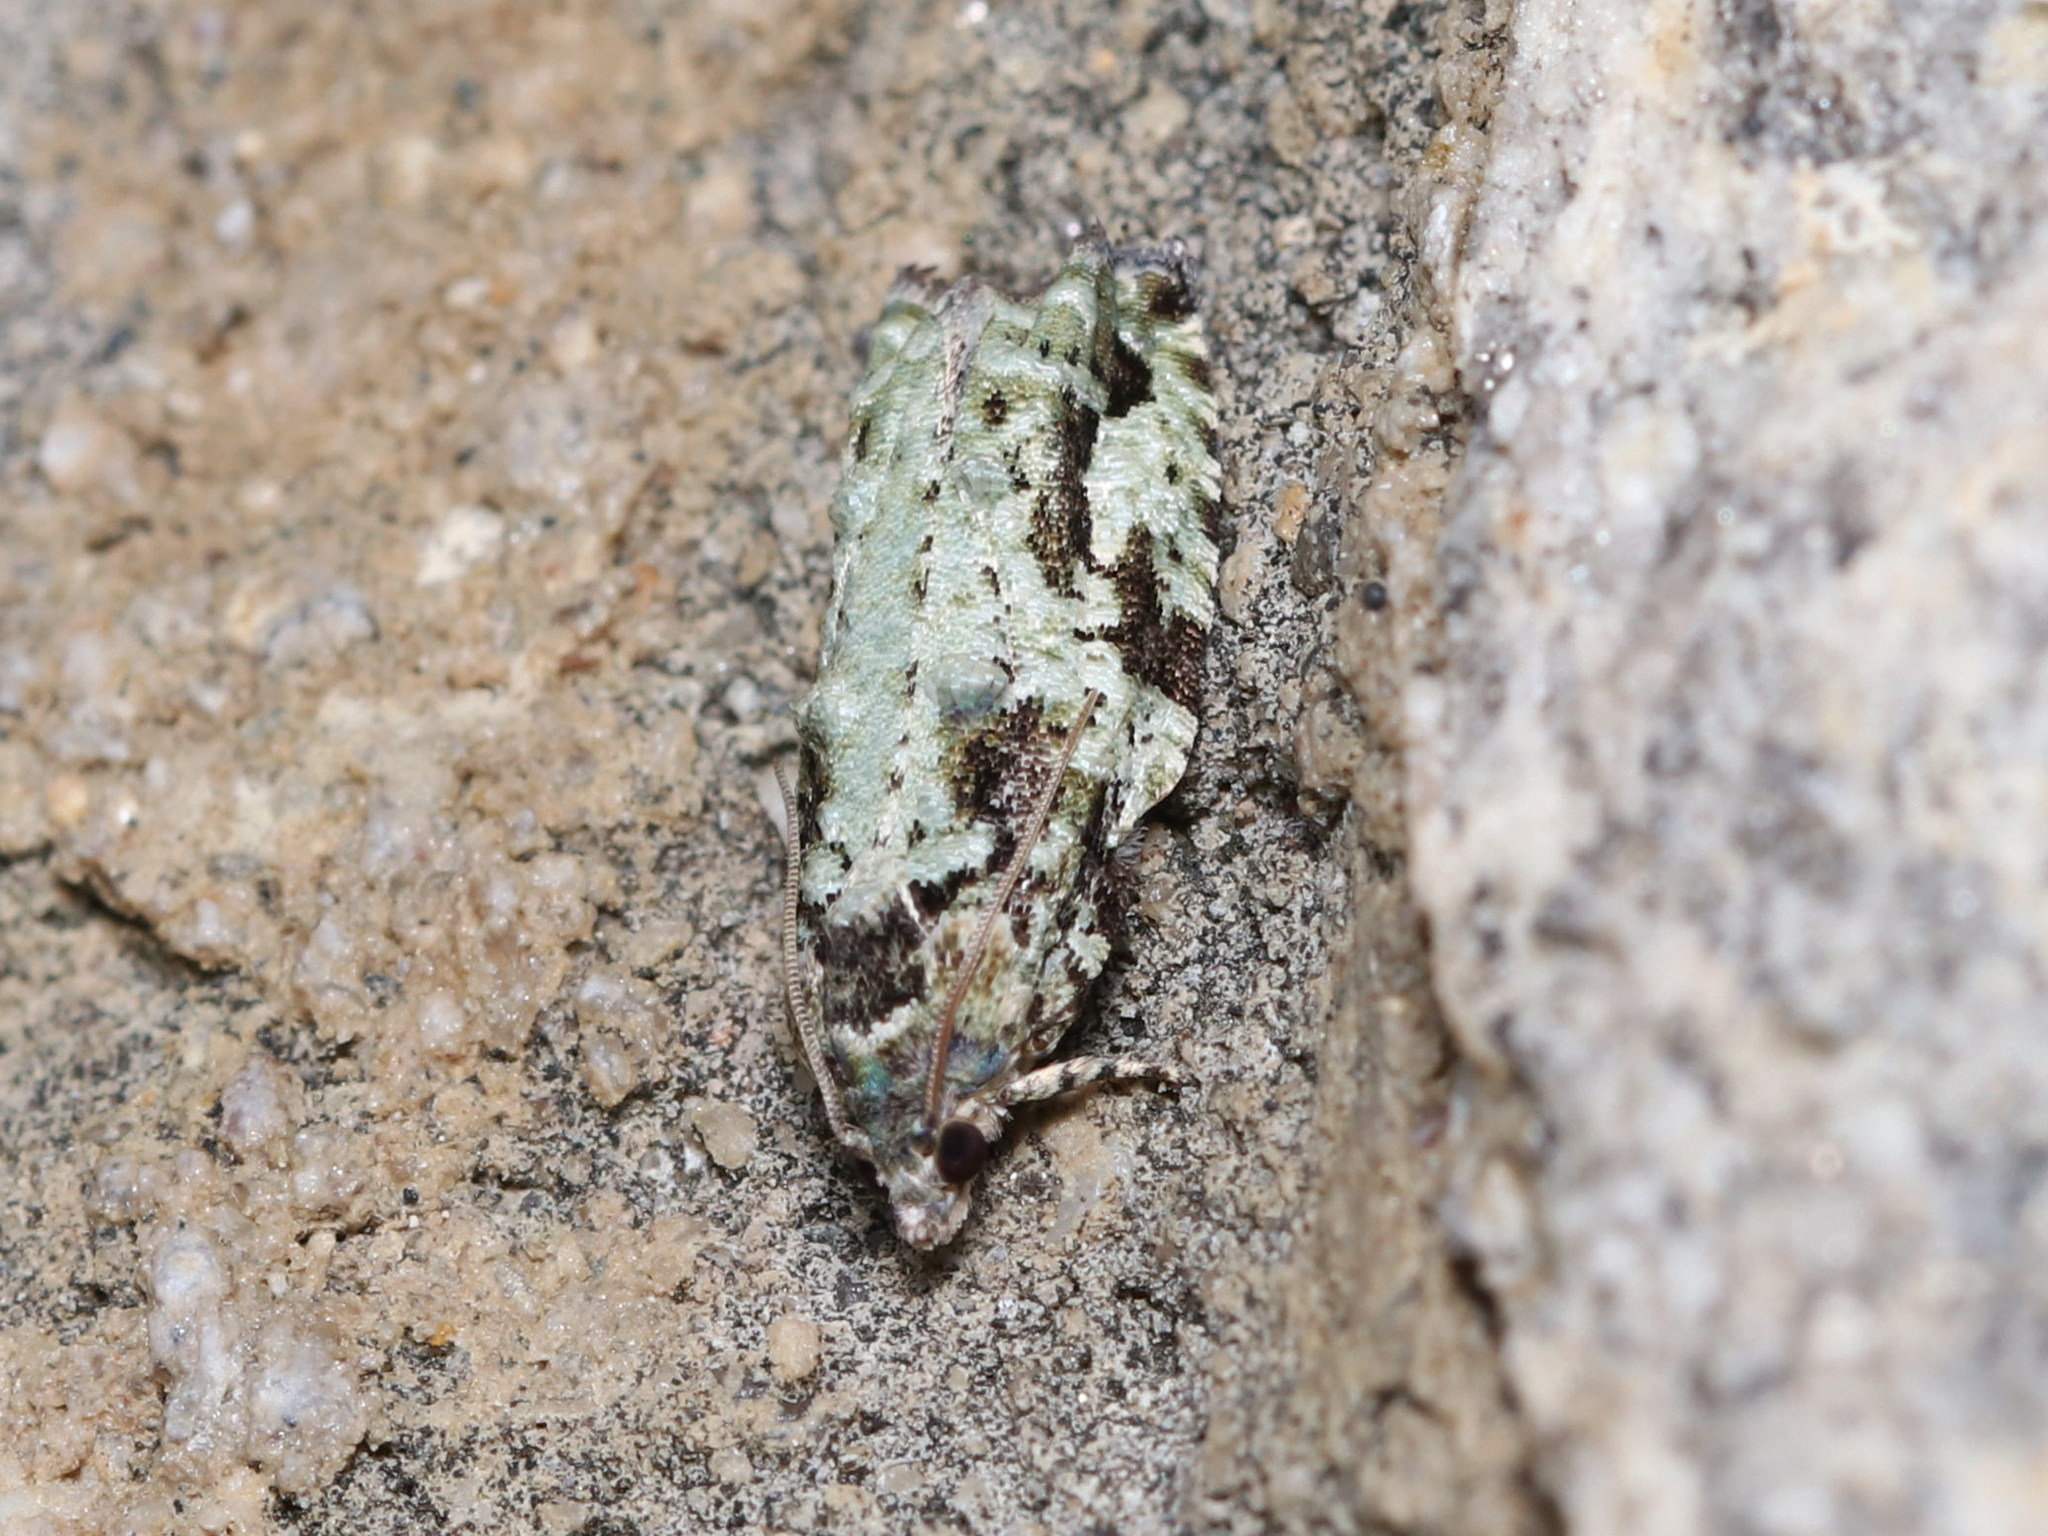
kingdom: Animalia
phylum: Arthropoda
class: Insecta
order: Lepidoptera
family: Tortricidae
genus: Proteoteras
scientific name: Proteoteras moffatiana
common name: Maple bud borer moth
